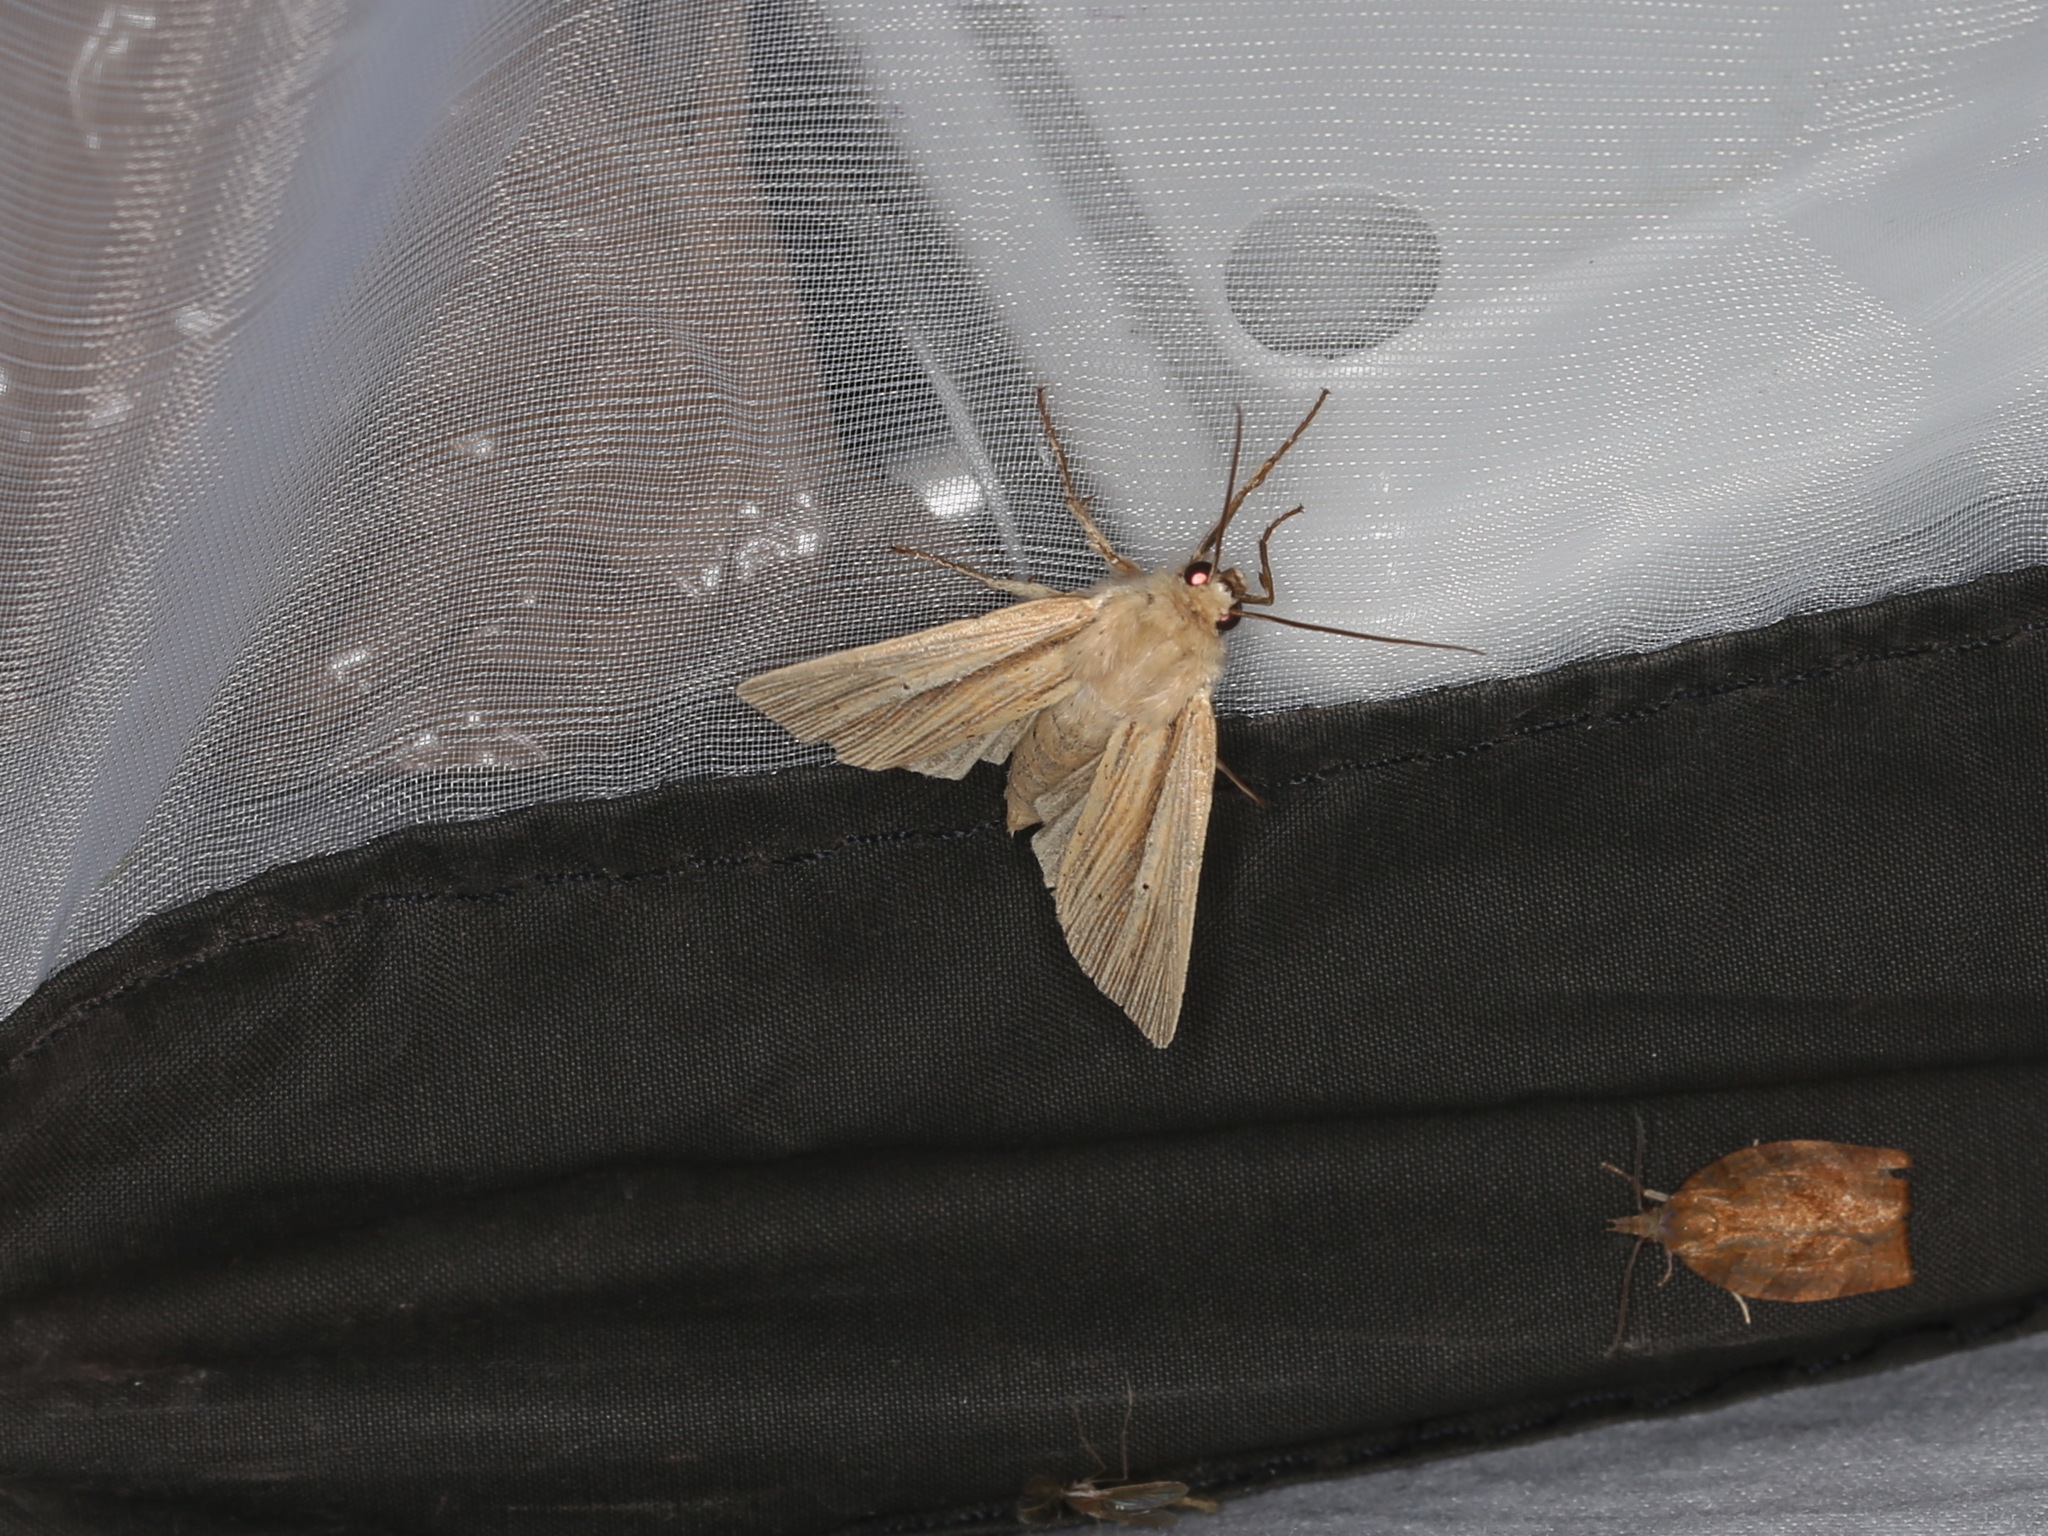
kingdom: Animalia
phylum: Arthropoda
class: Insecta
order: Lepidoptera
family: Noctuidae
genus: Mythimna
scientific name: Mythimna impura
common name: Smoky wainscot
